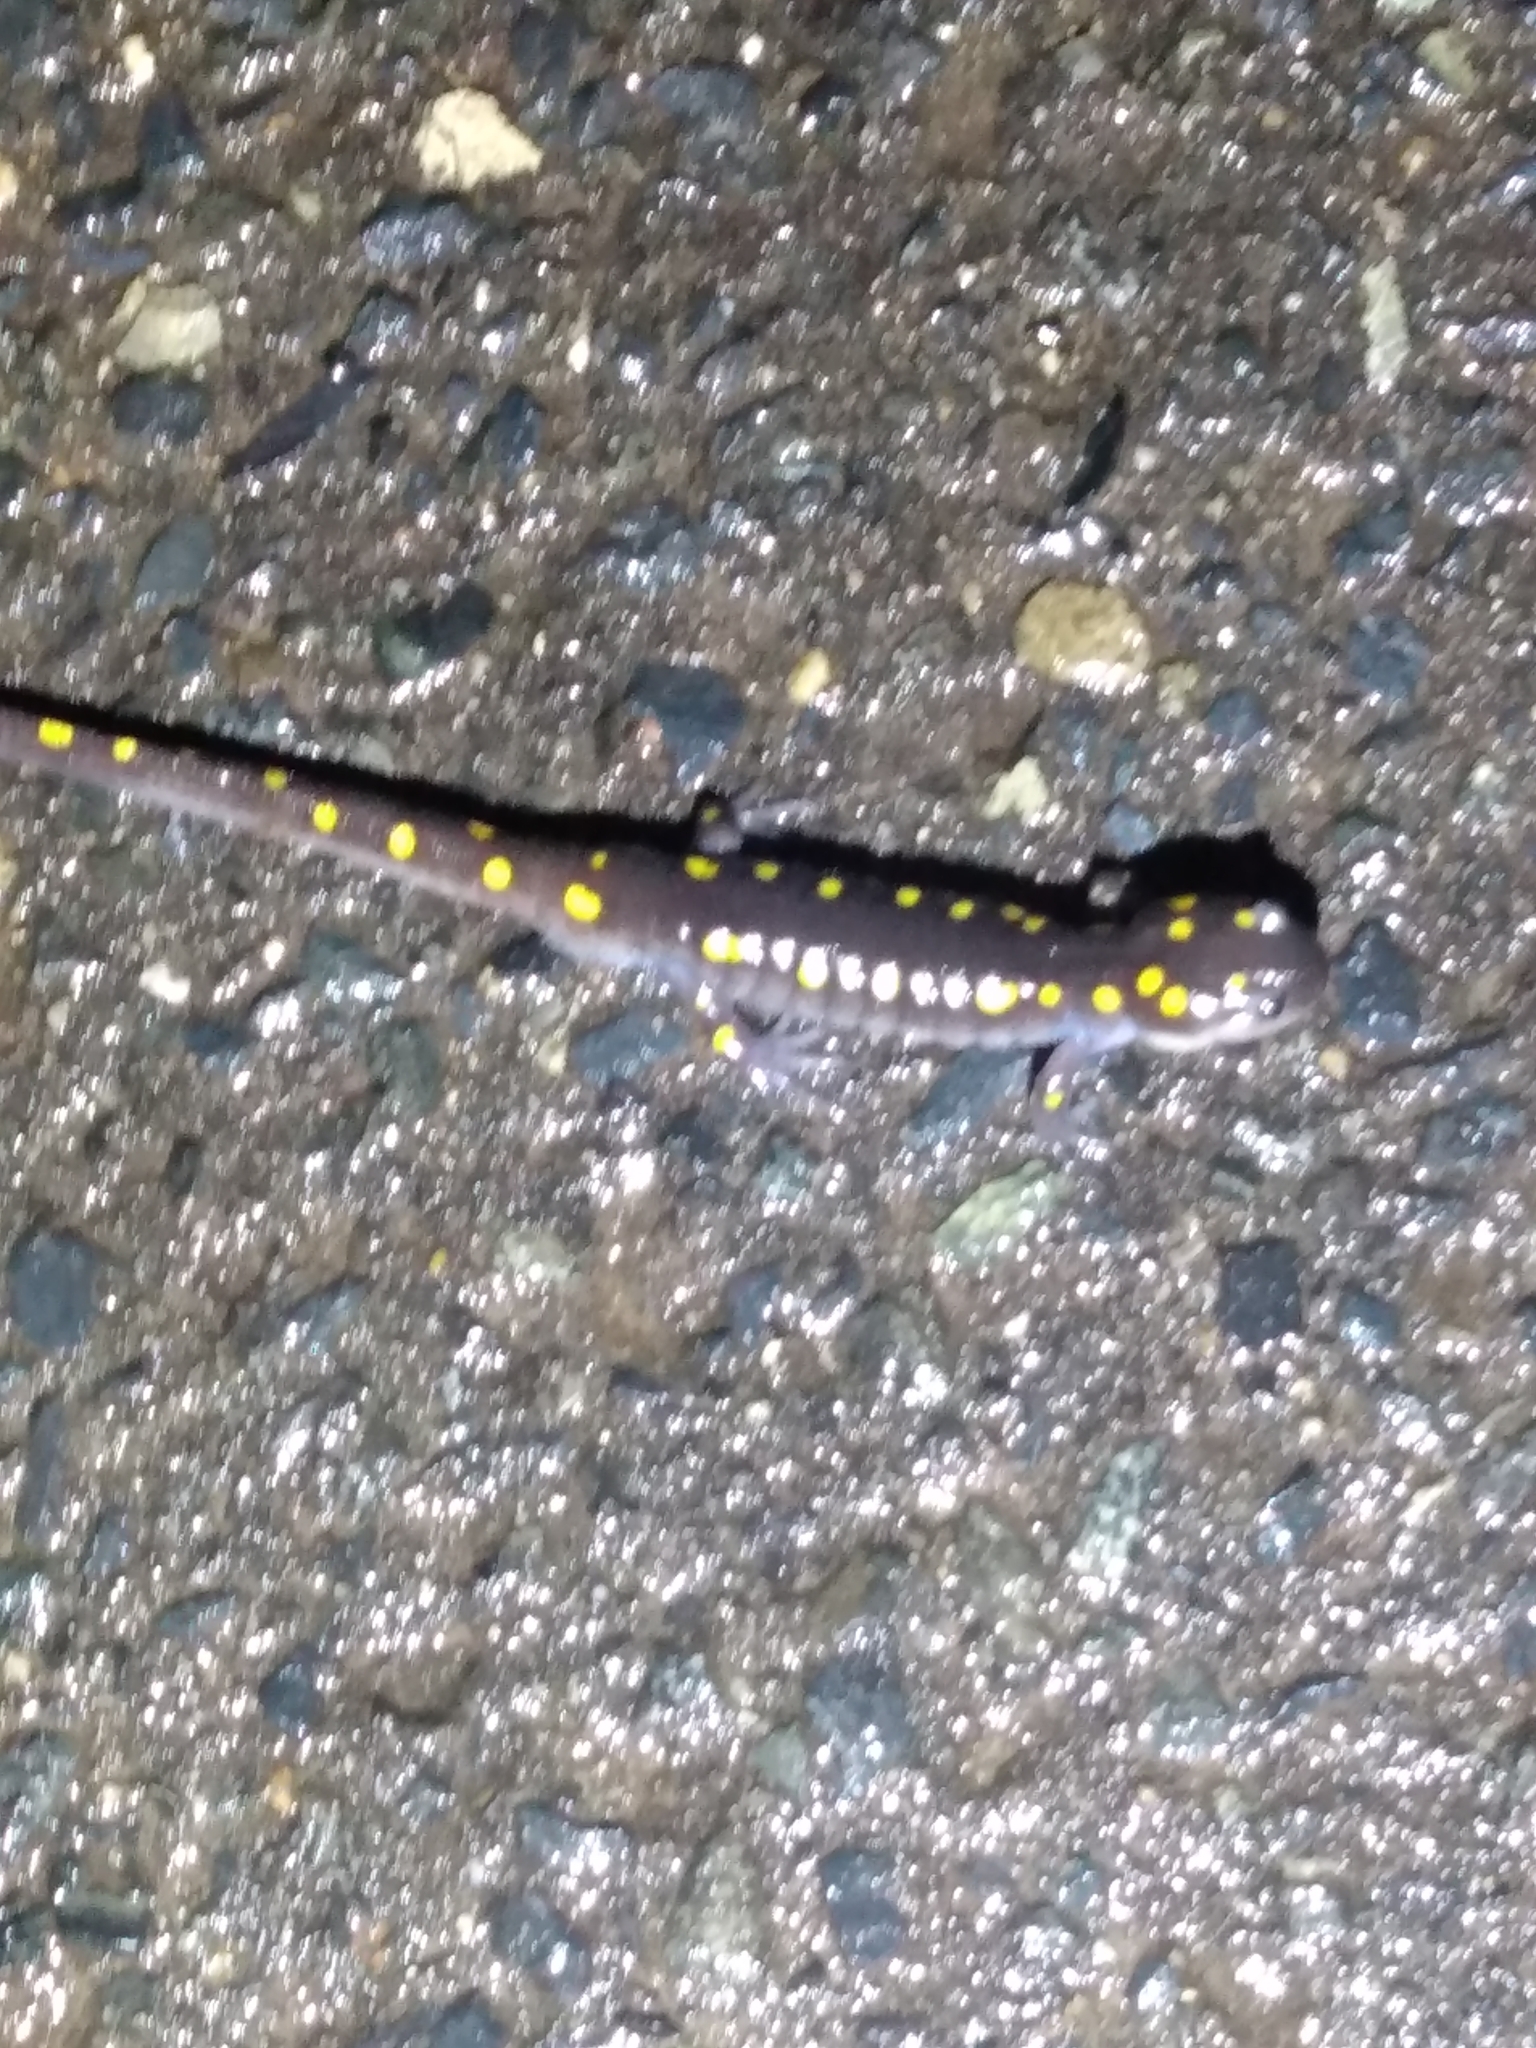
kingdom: Animalia
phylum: Chordata
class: Amphibia
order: Caudata
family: Ambystomatidae
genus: Ambystoma
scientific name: Ambystoma maculatum
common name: Spotted salamander
